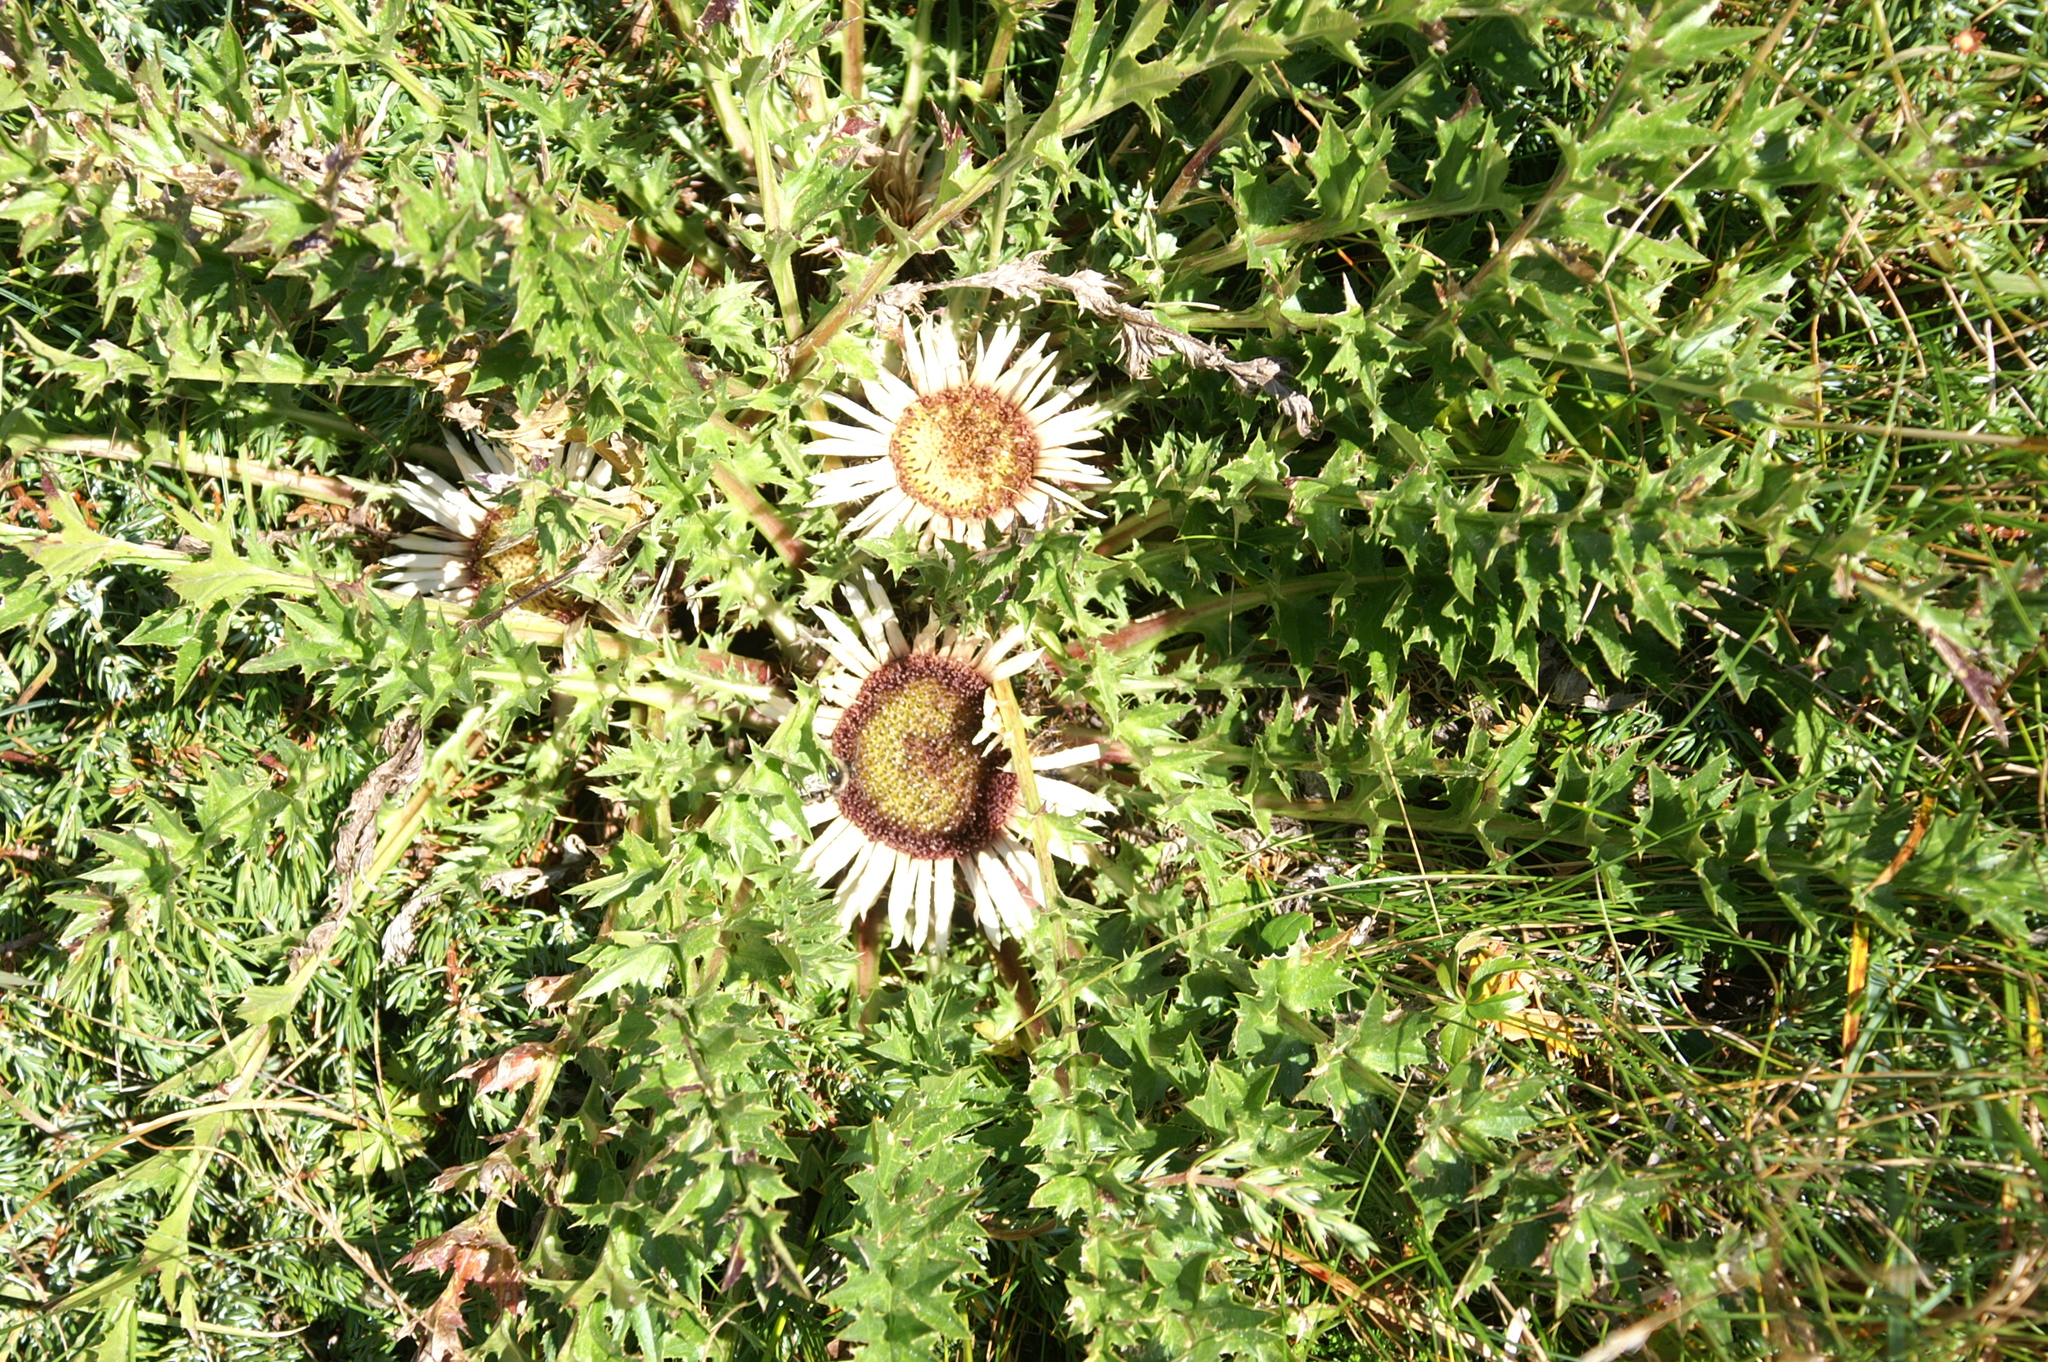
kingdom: Plantae
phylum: Tracheophyta
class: Magnoliopsida
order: Asterales
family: Asteraceae
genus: Carlina
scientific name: Carlina acaulis
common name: Stemless carline thistle
